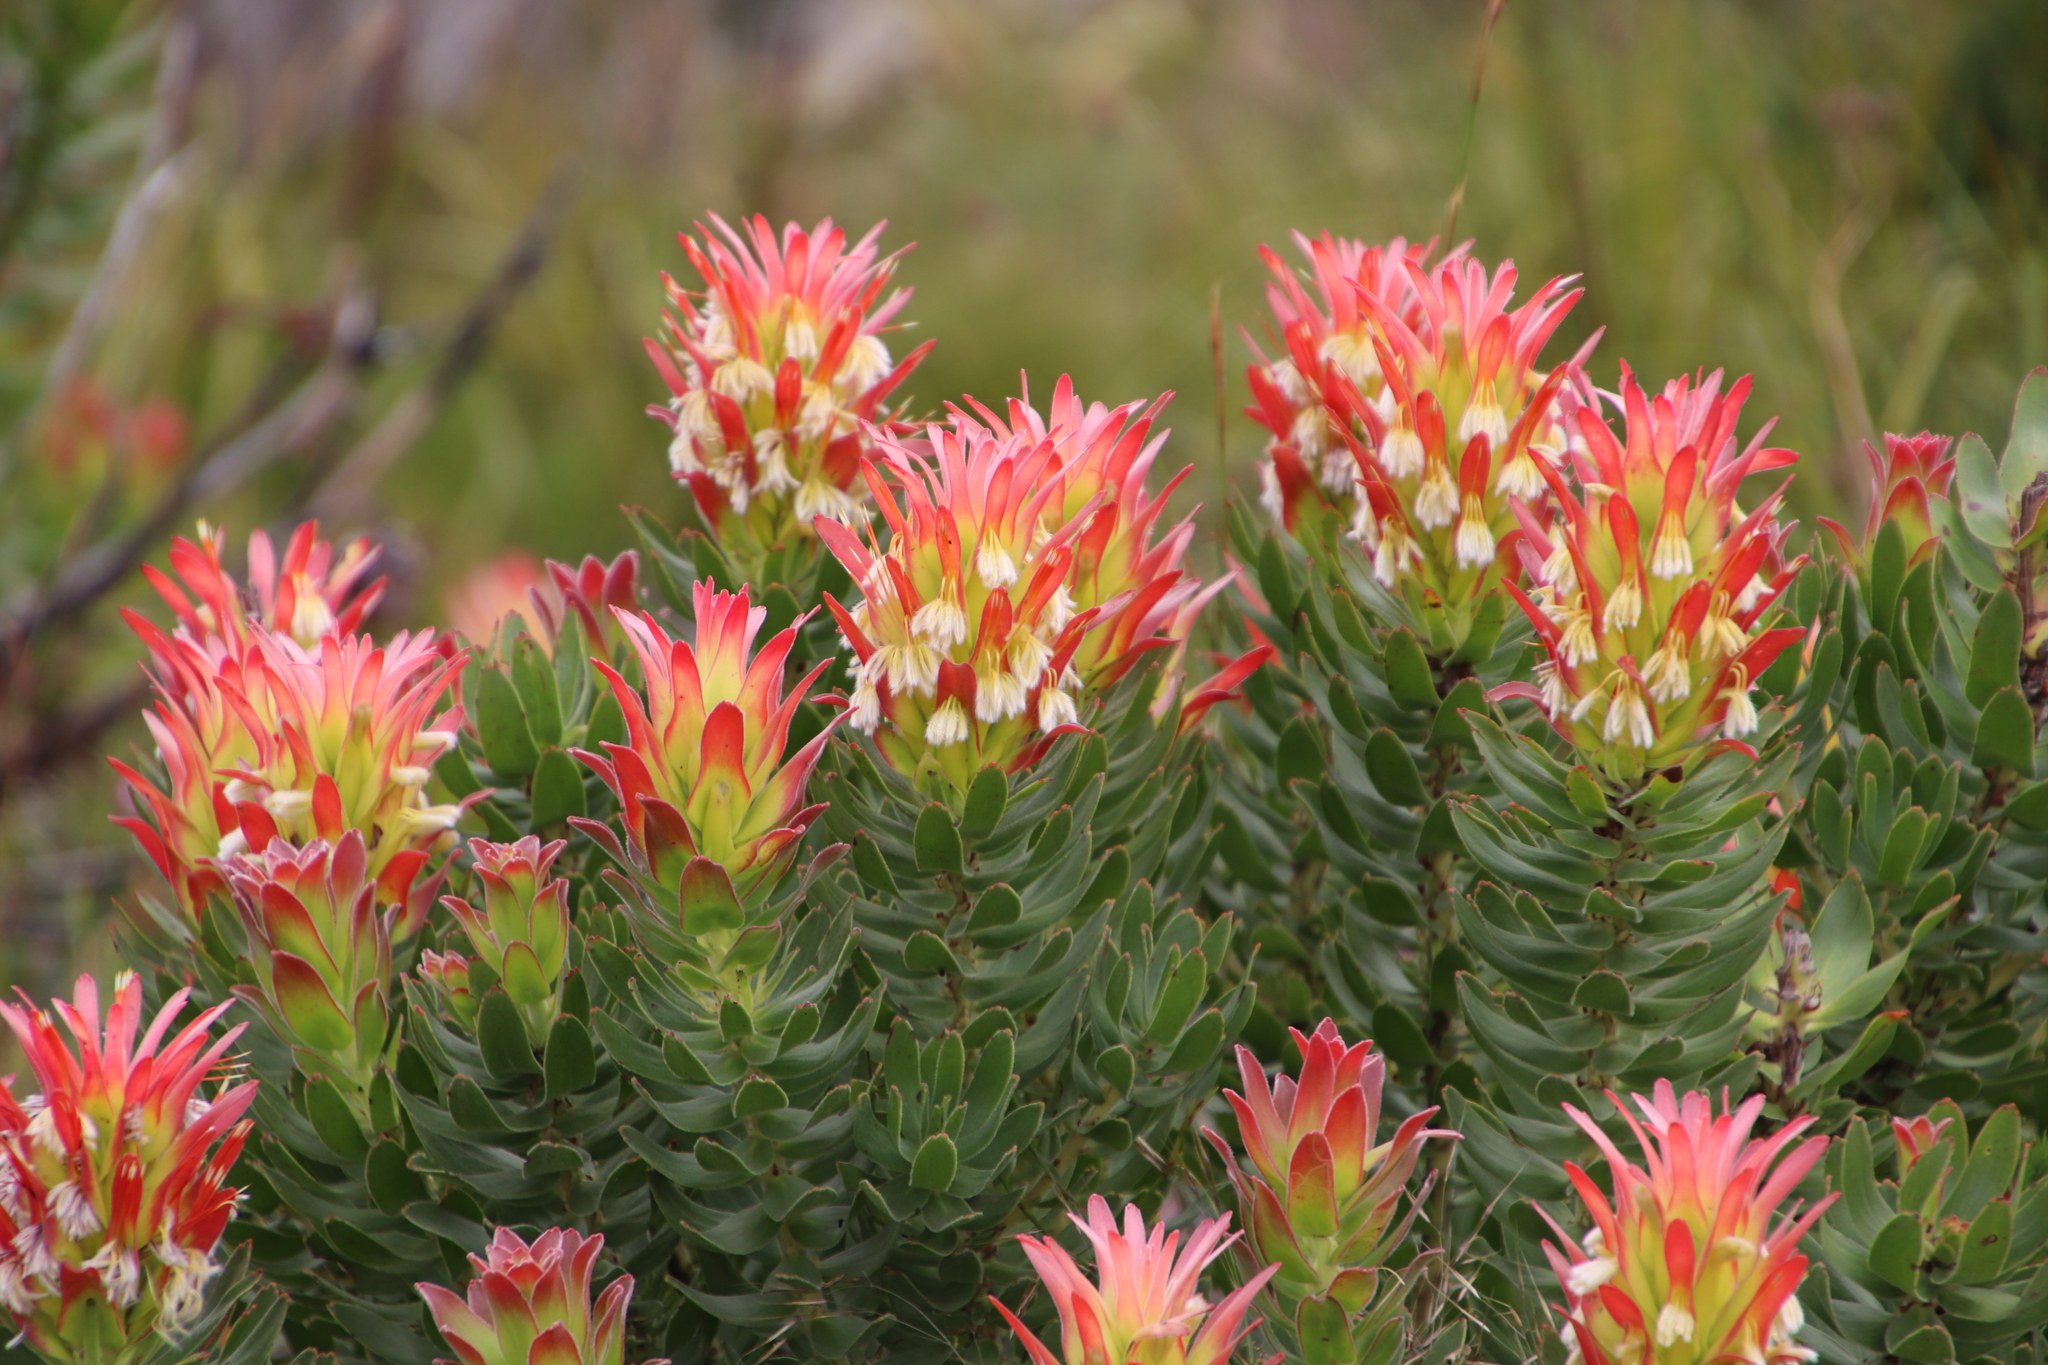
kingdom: Plantae
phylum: Tracheophyta
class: Magnoliopsida
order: Proteales
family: Proteaceae
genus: Mimetes
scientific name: Mimetes cucullatus
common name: Common pagoda
